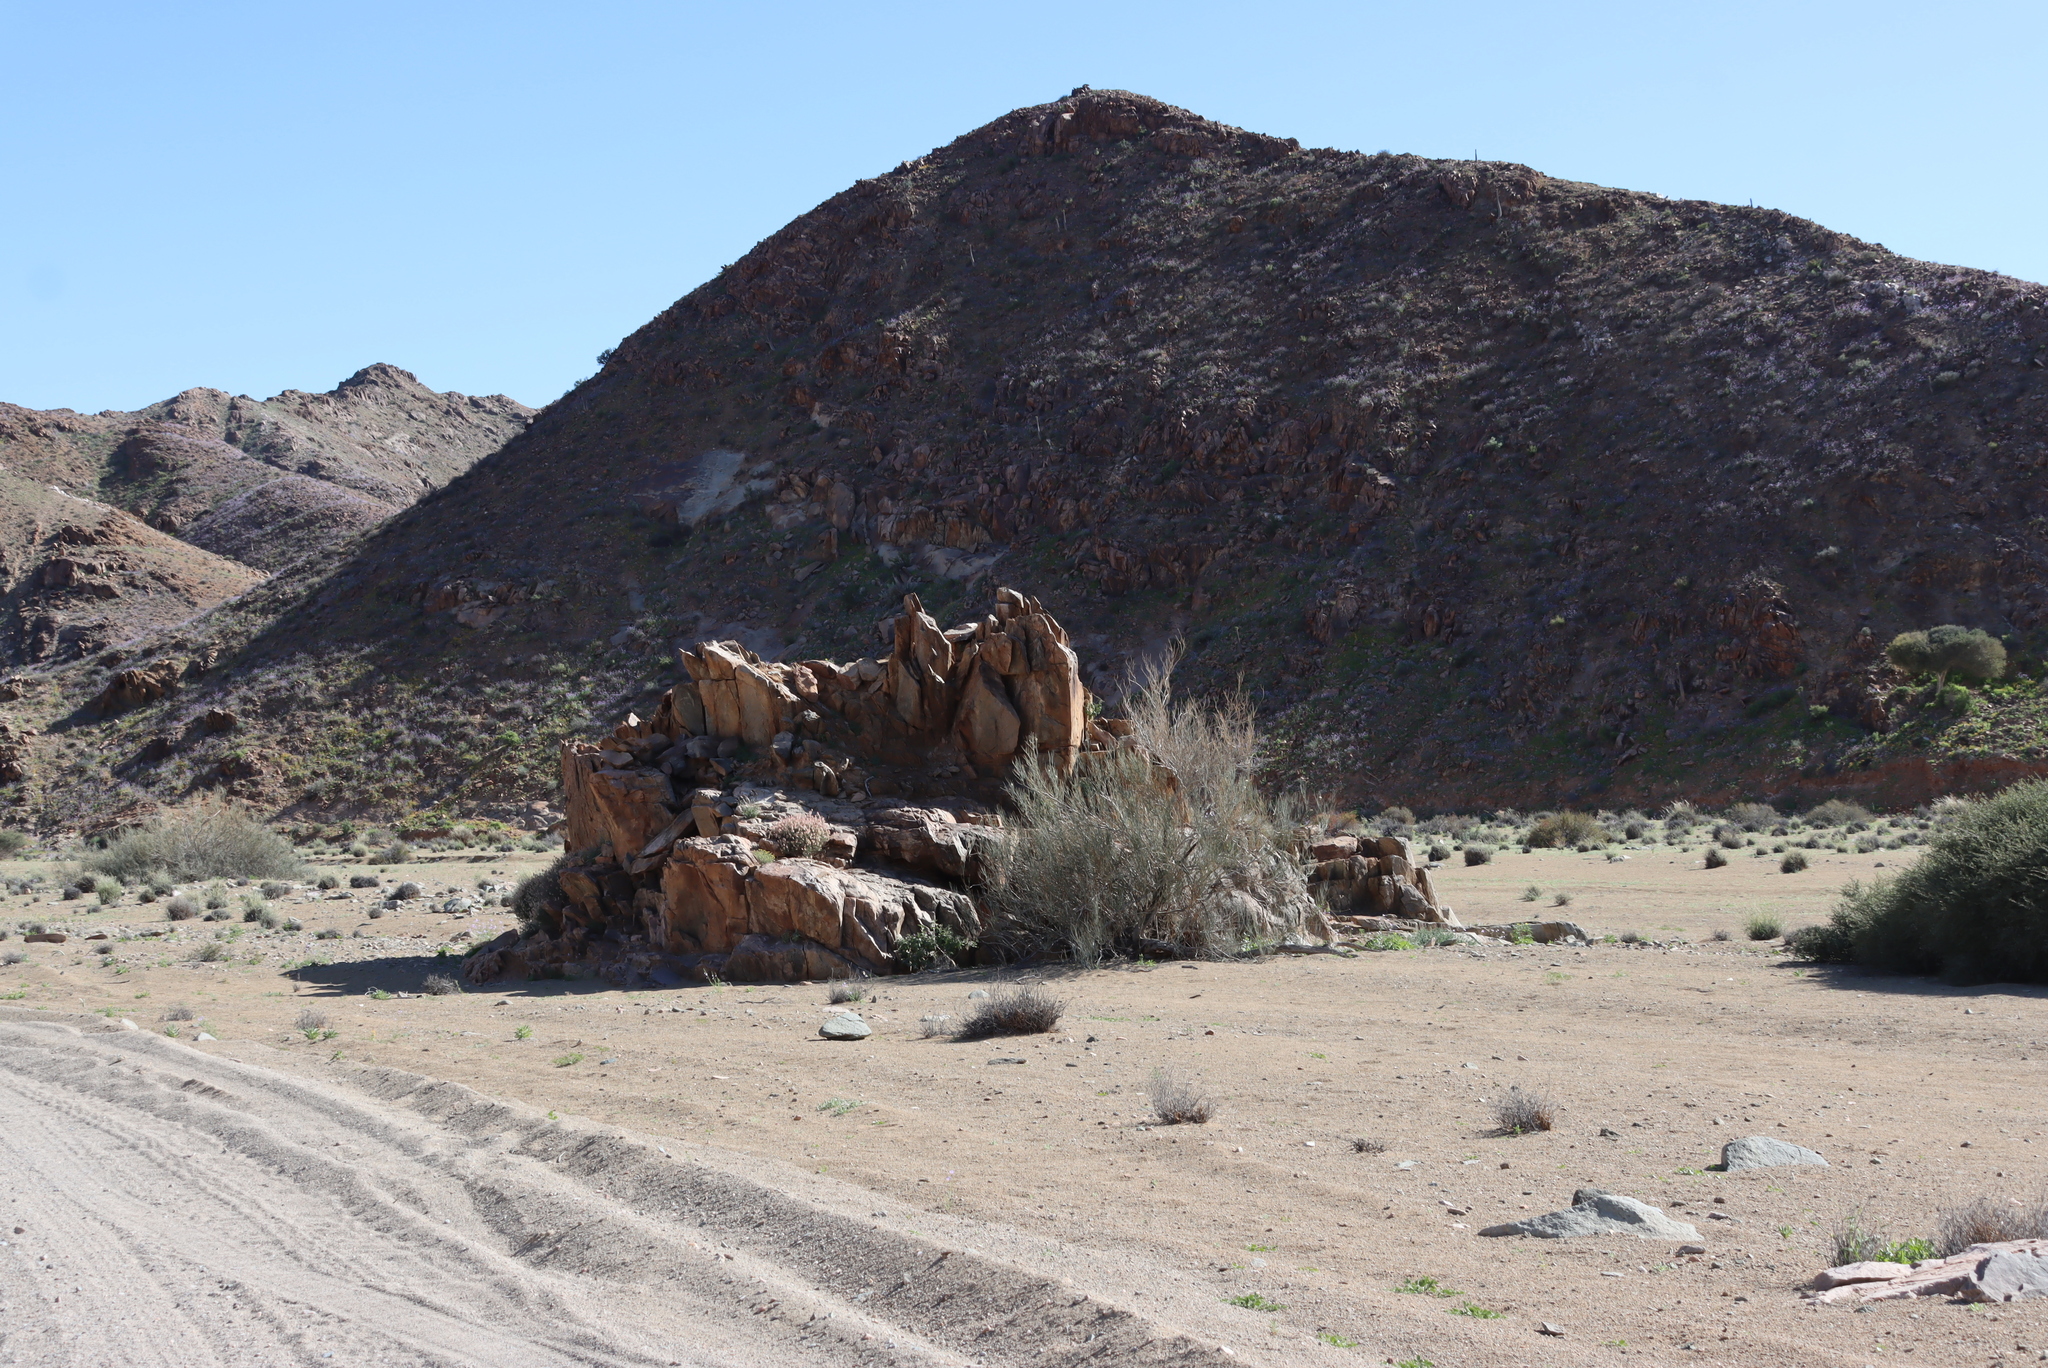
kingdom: Plantae
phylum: Tracheophyta
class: Magnoliopsida
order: Gentianales
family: Apocynaceae
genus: Pachypodium
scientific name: Pachypodium namaquanum
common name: Elephant's trunk
